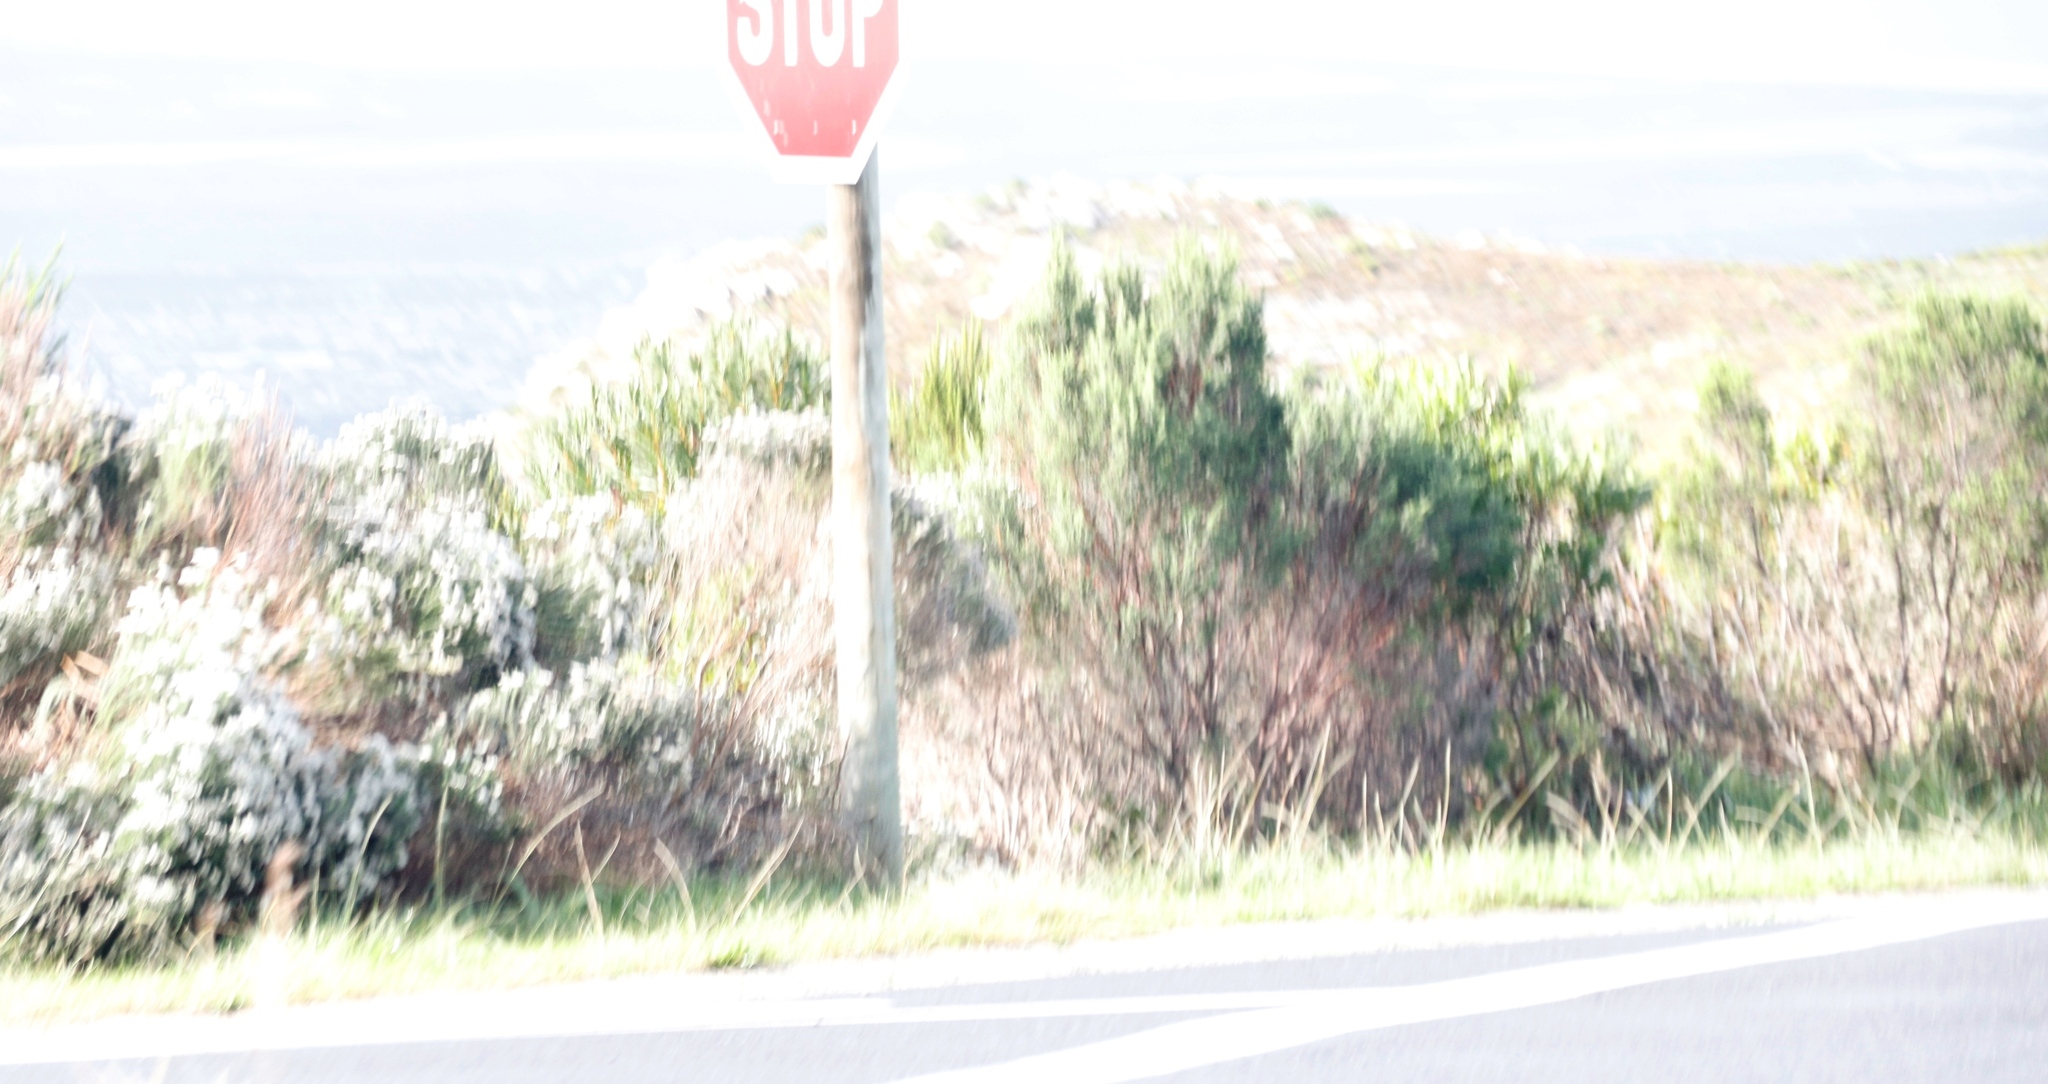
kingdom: Plantae
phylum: Tracheophyta
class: Liliopsida
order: Poales
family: Poaceae
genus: Hyparrhenia
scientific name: Hyparrhenia hirta
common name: Thatching grass
